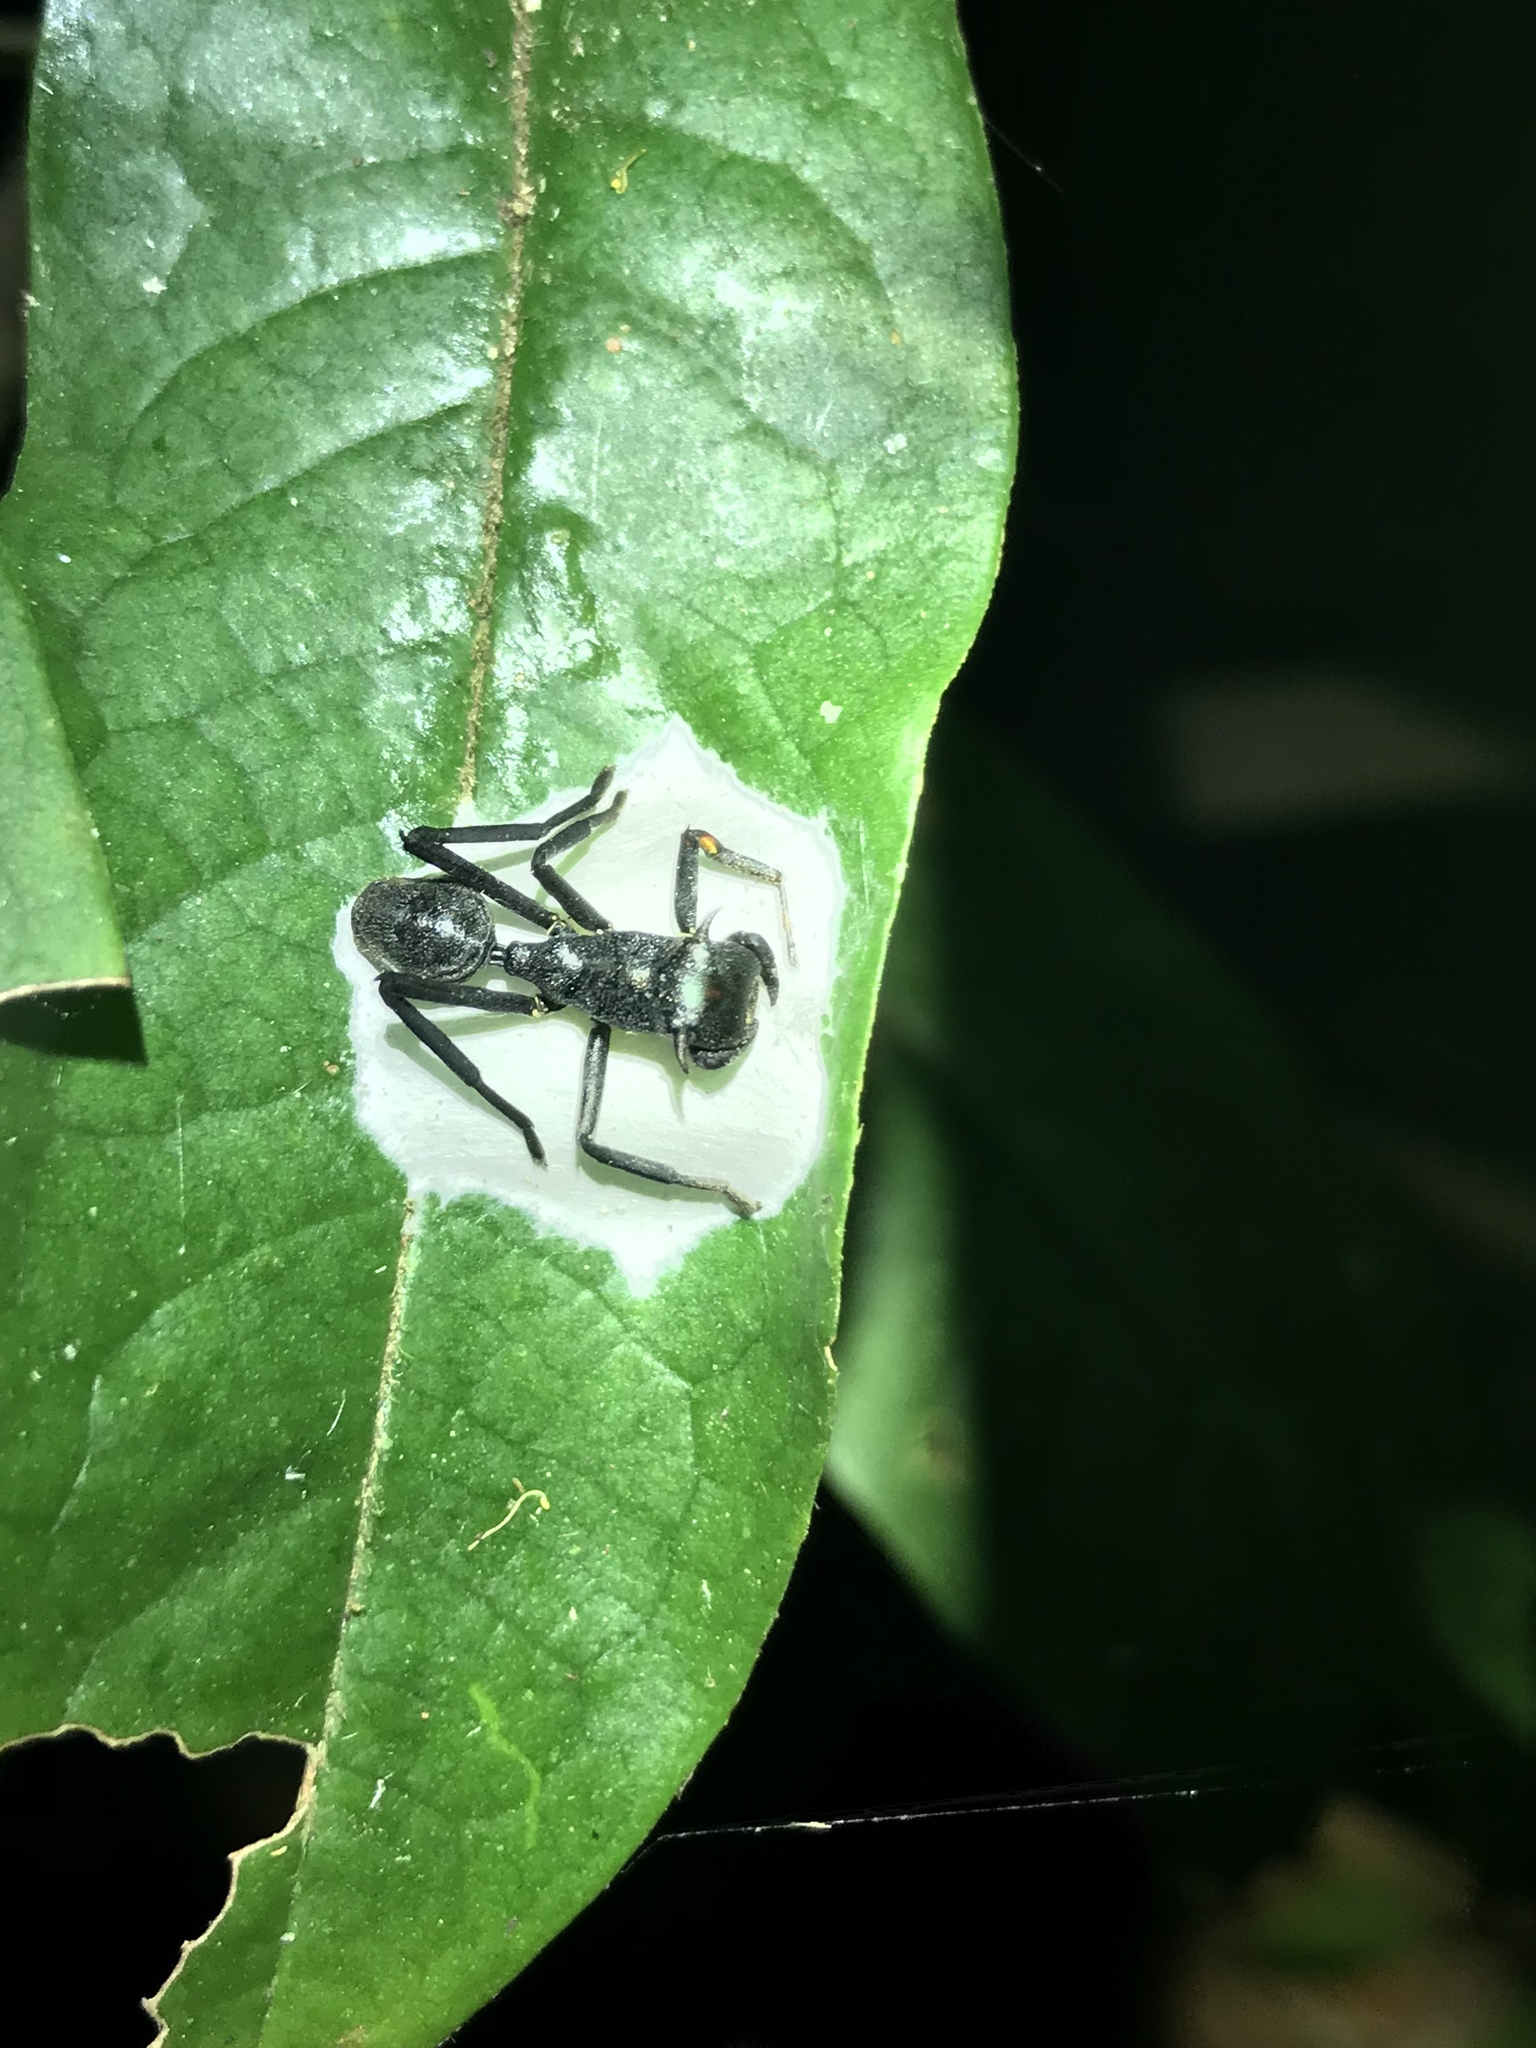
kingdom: Animalia
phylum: Arthropoda
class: Arachnida
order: Araneae
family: Thomisidae
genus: Aphantochilus
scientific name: Aphantochilus rogersi
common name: Crab spiders
